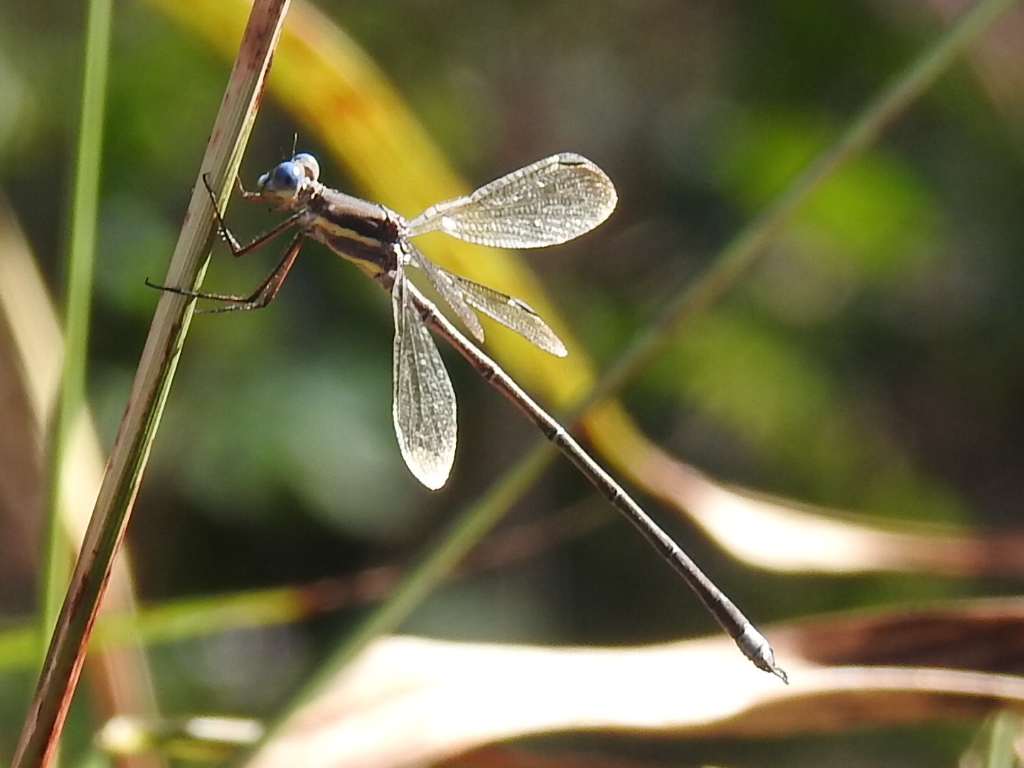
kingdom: Animalia
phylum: Arthropoda
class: Insecta
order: Odonata
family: Lestidae
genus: Archilestes
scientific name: Archilestes grandis
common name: Great spreadwing
